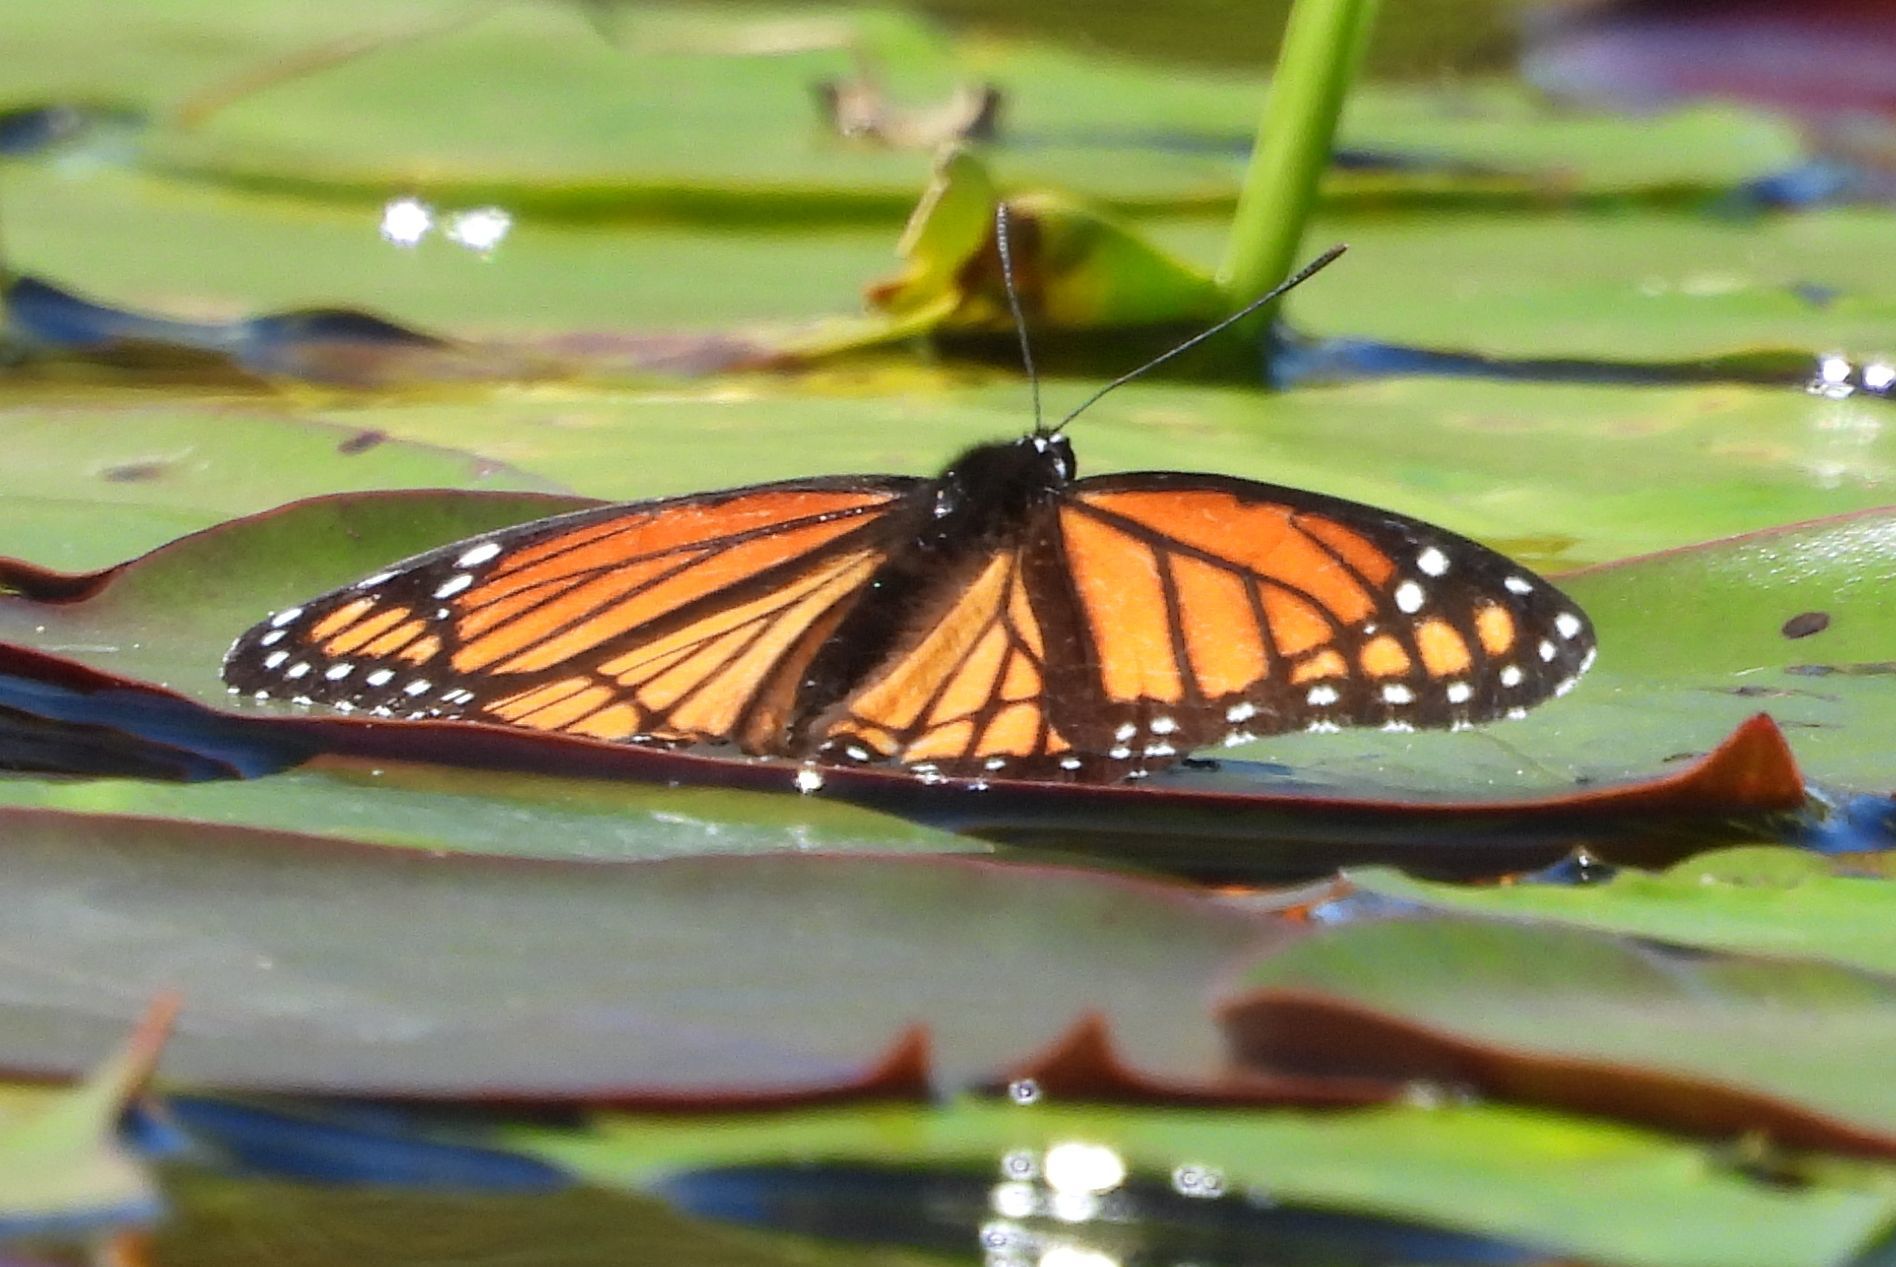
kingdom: Animalia
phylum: Arthropoda
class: Insecta
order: Lepidoptera
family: Nymphalidae
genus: Limenitis
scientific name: Limenitis archippus
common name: Viceroy
